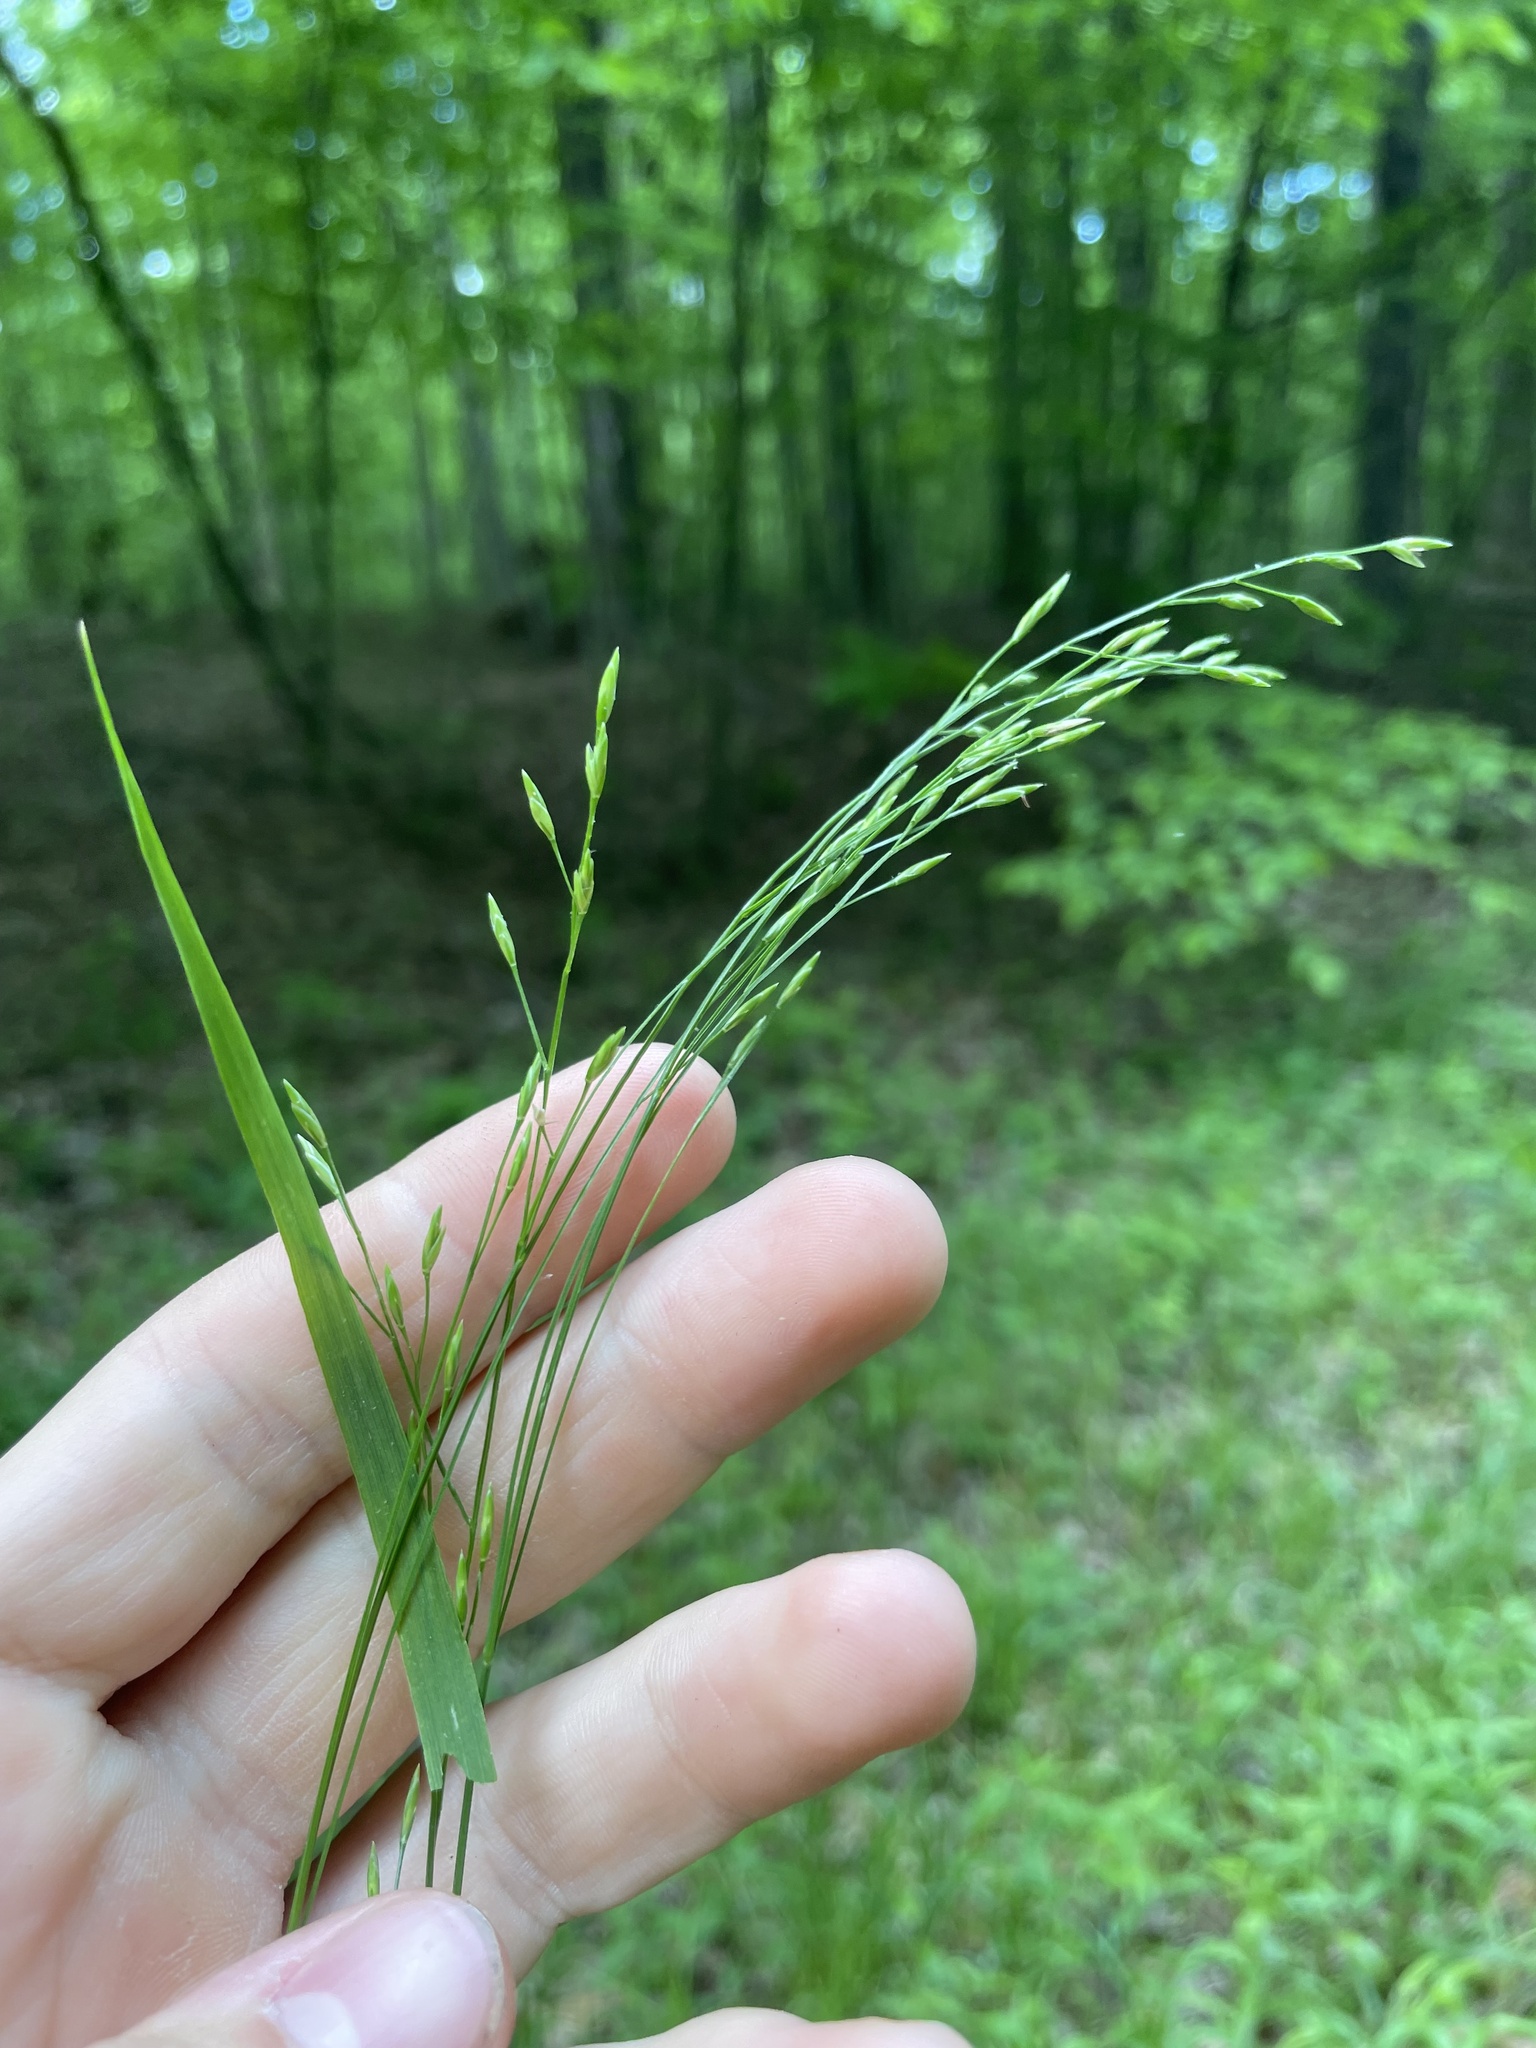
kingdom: Plantae
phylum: Tracheophyta
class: Liliopsida
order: Poales
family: Poaceae
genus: Festuca
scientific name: Festuca subverticillata
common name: Nodding fescue
